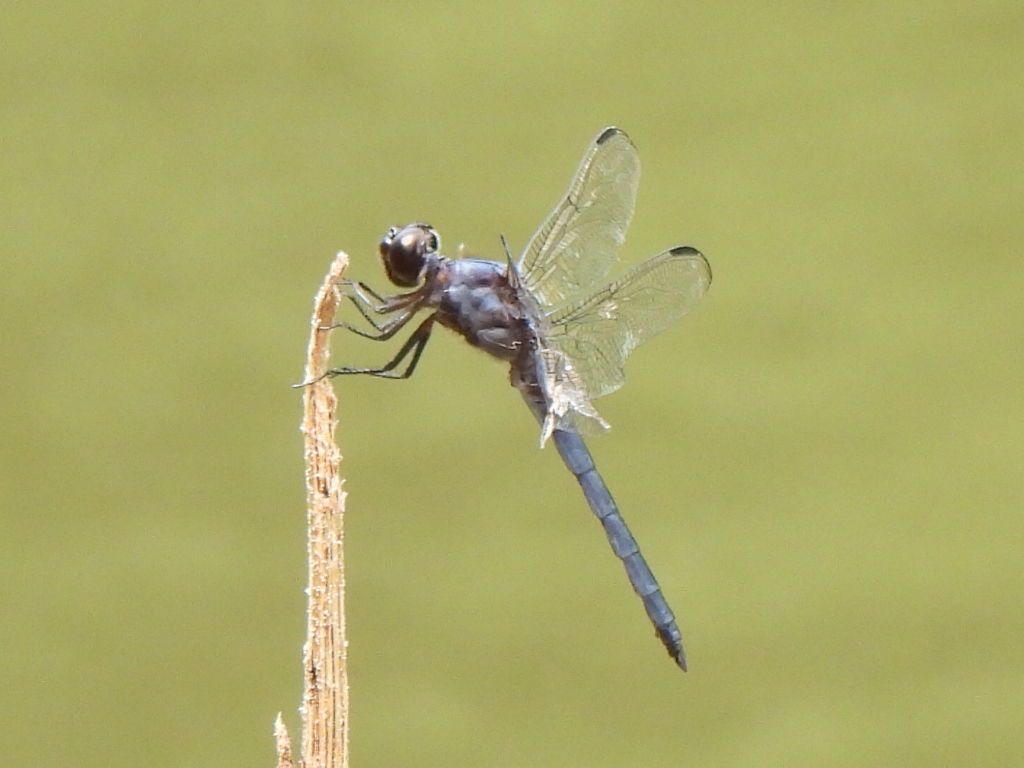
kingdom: Animalia
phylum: Arthropoda
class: Insecta
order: Odonata
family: Libellulidae
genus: Libellula
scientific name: Libellula incesta
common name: Slaty skimmer
